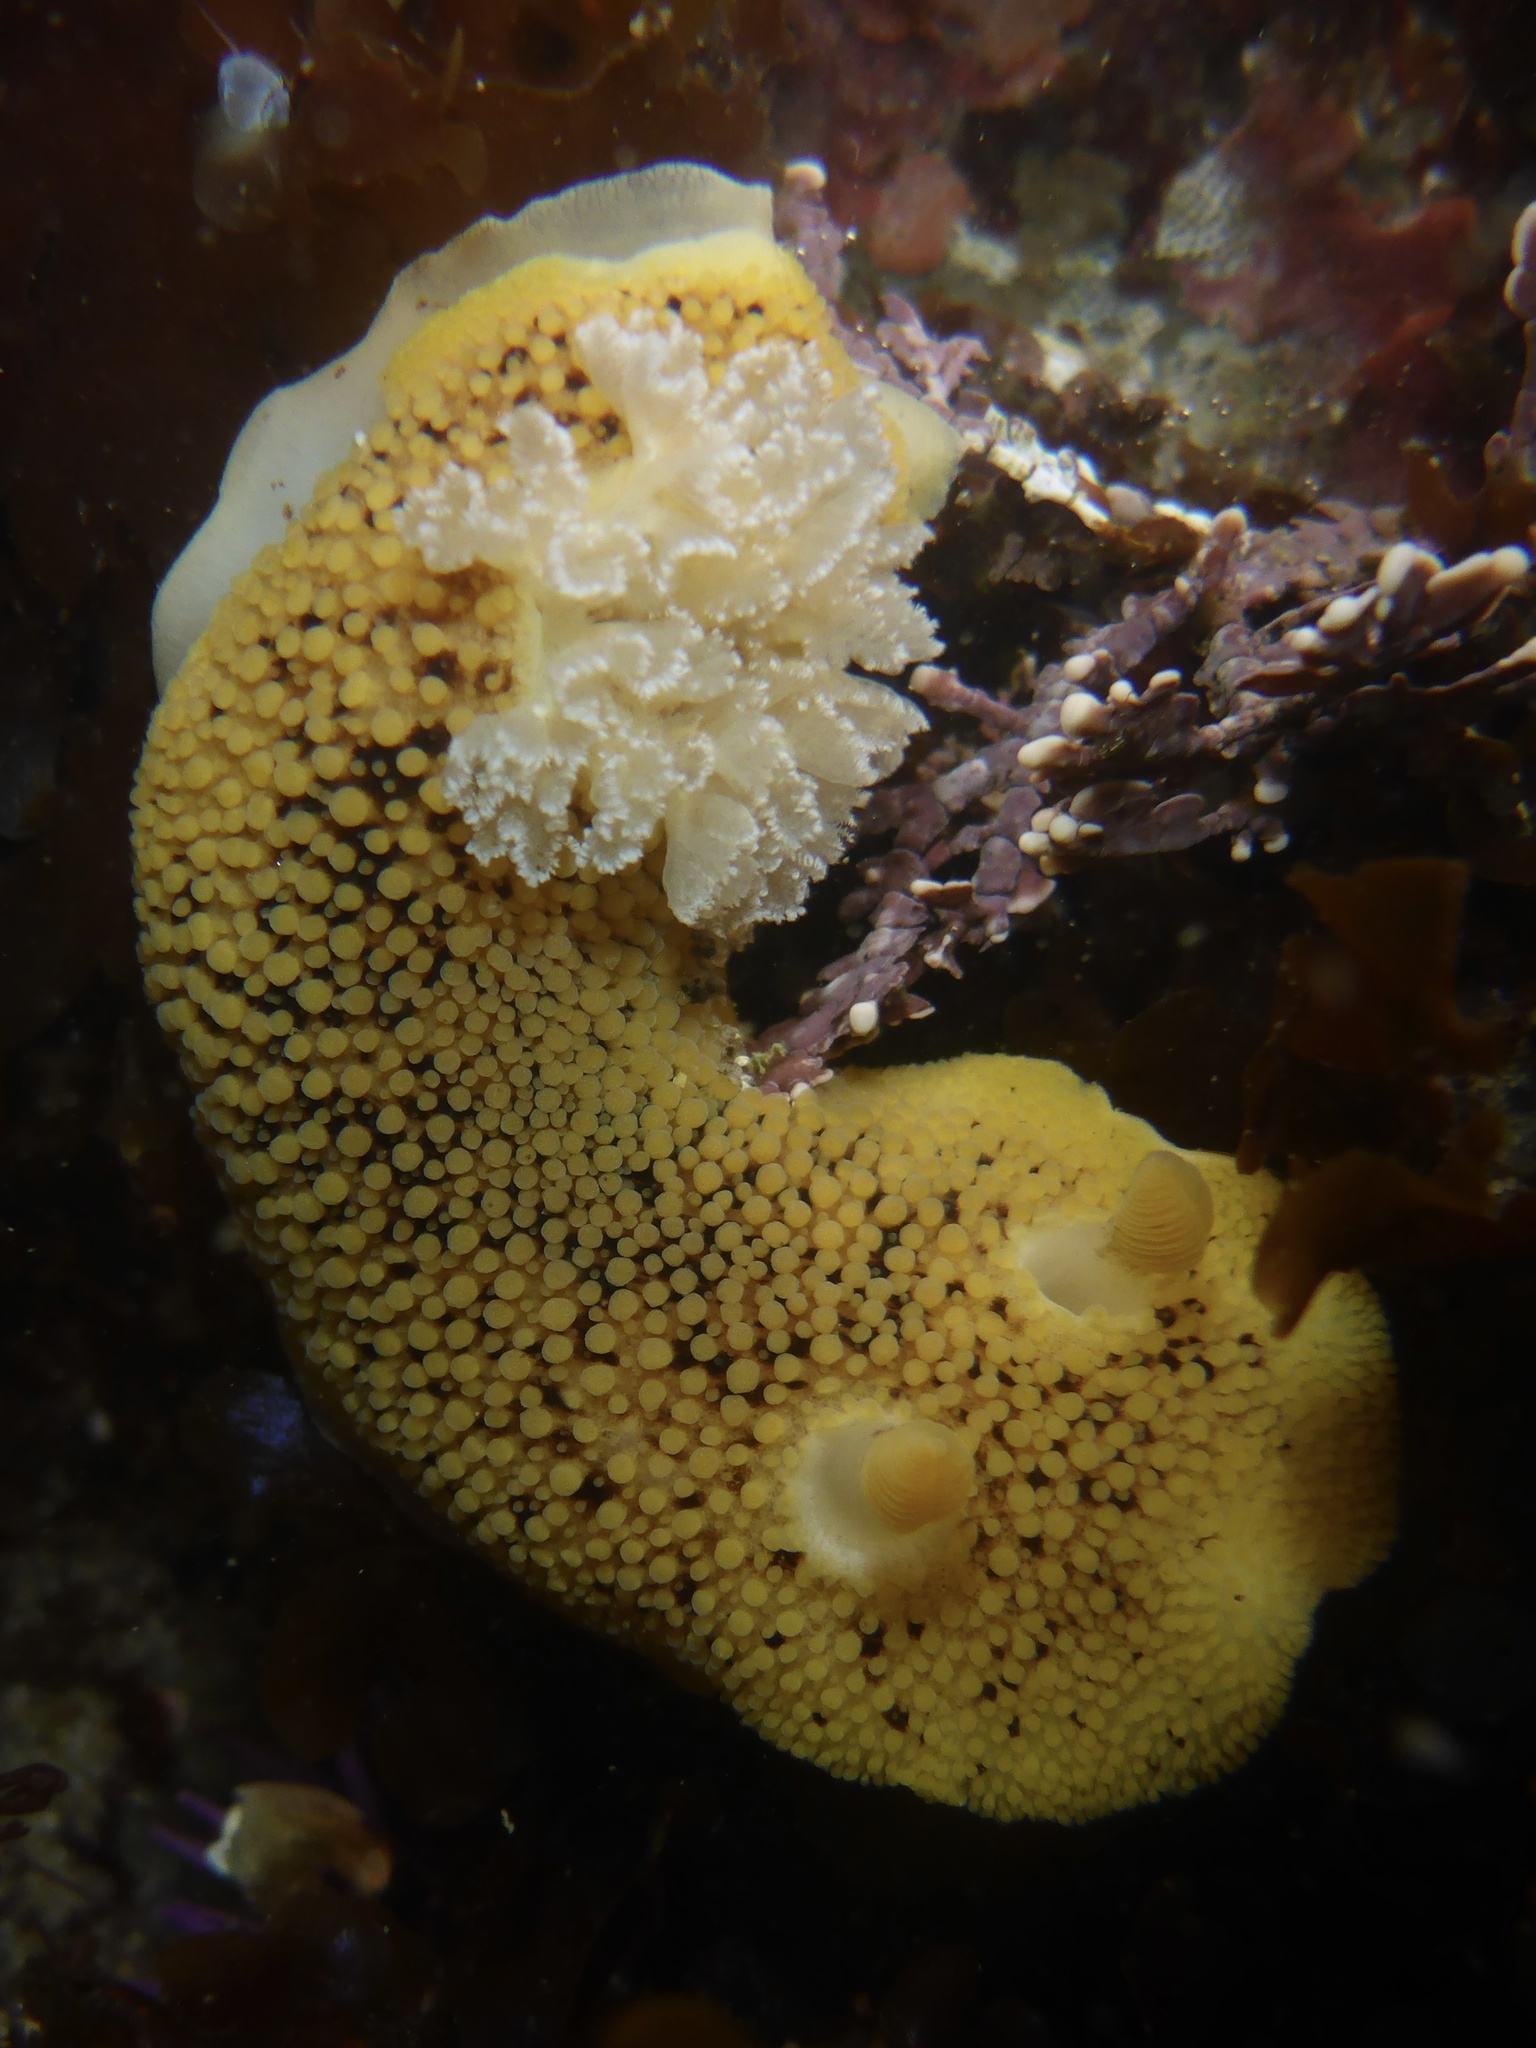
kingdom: Animalia
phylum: Mollusca
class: Gastropoda
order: Nudibranchia
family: Discodorididae
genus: Peltodoris
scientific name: Peltodoris nobilis
